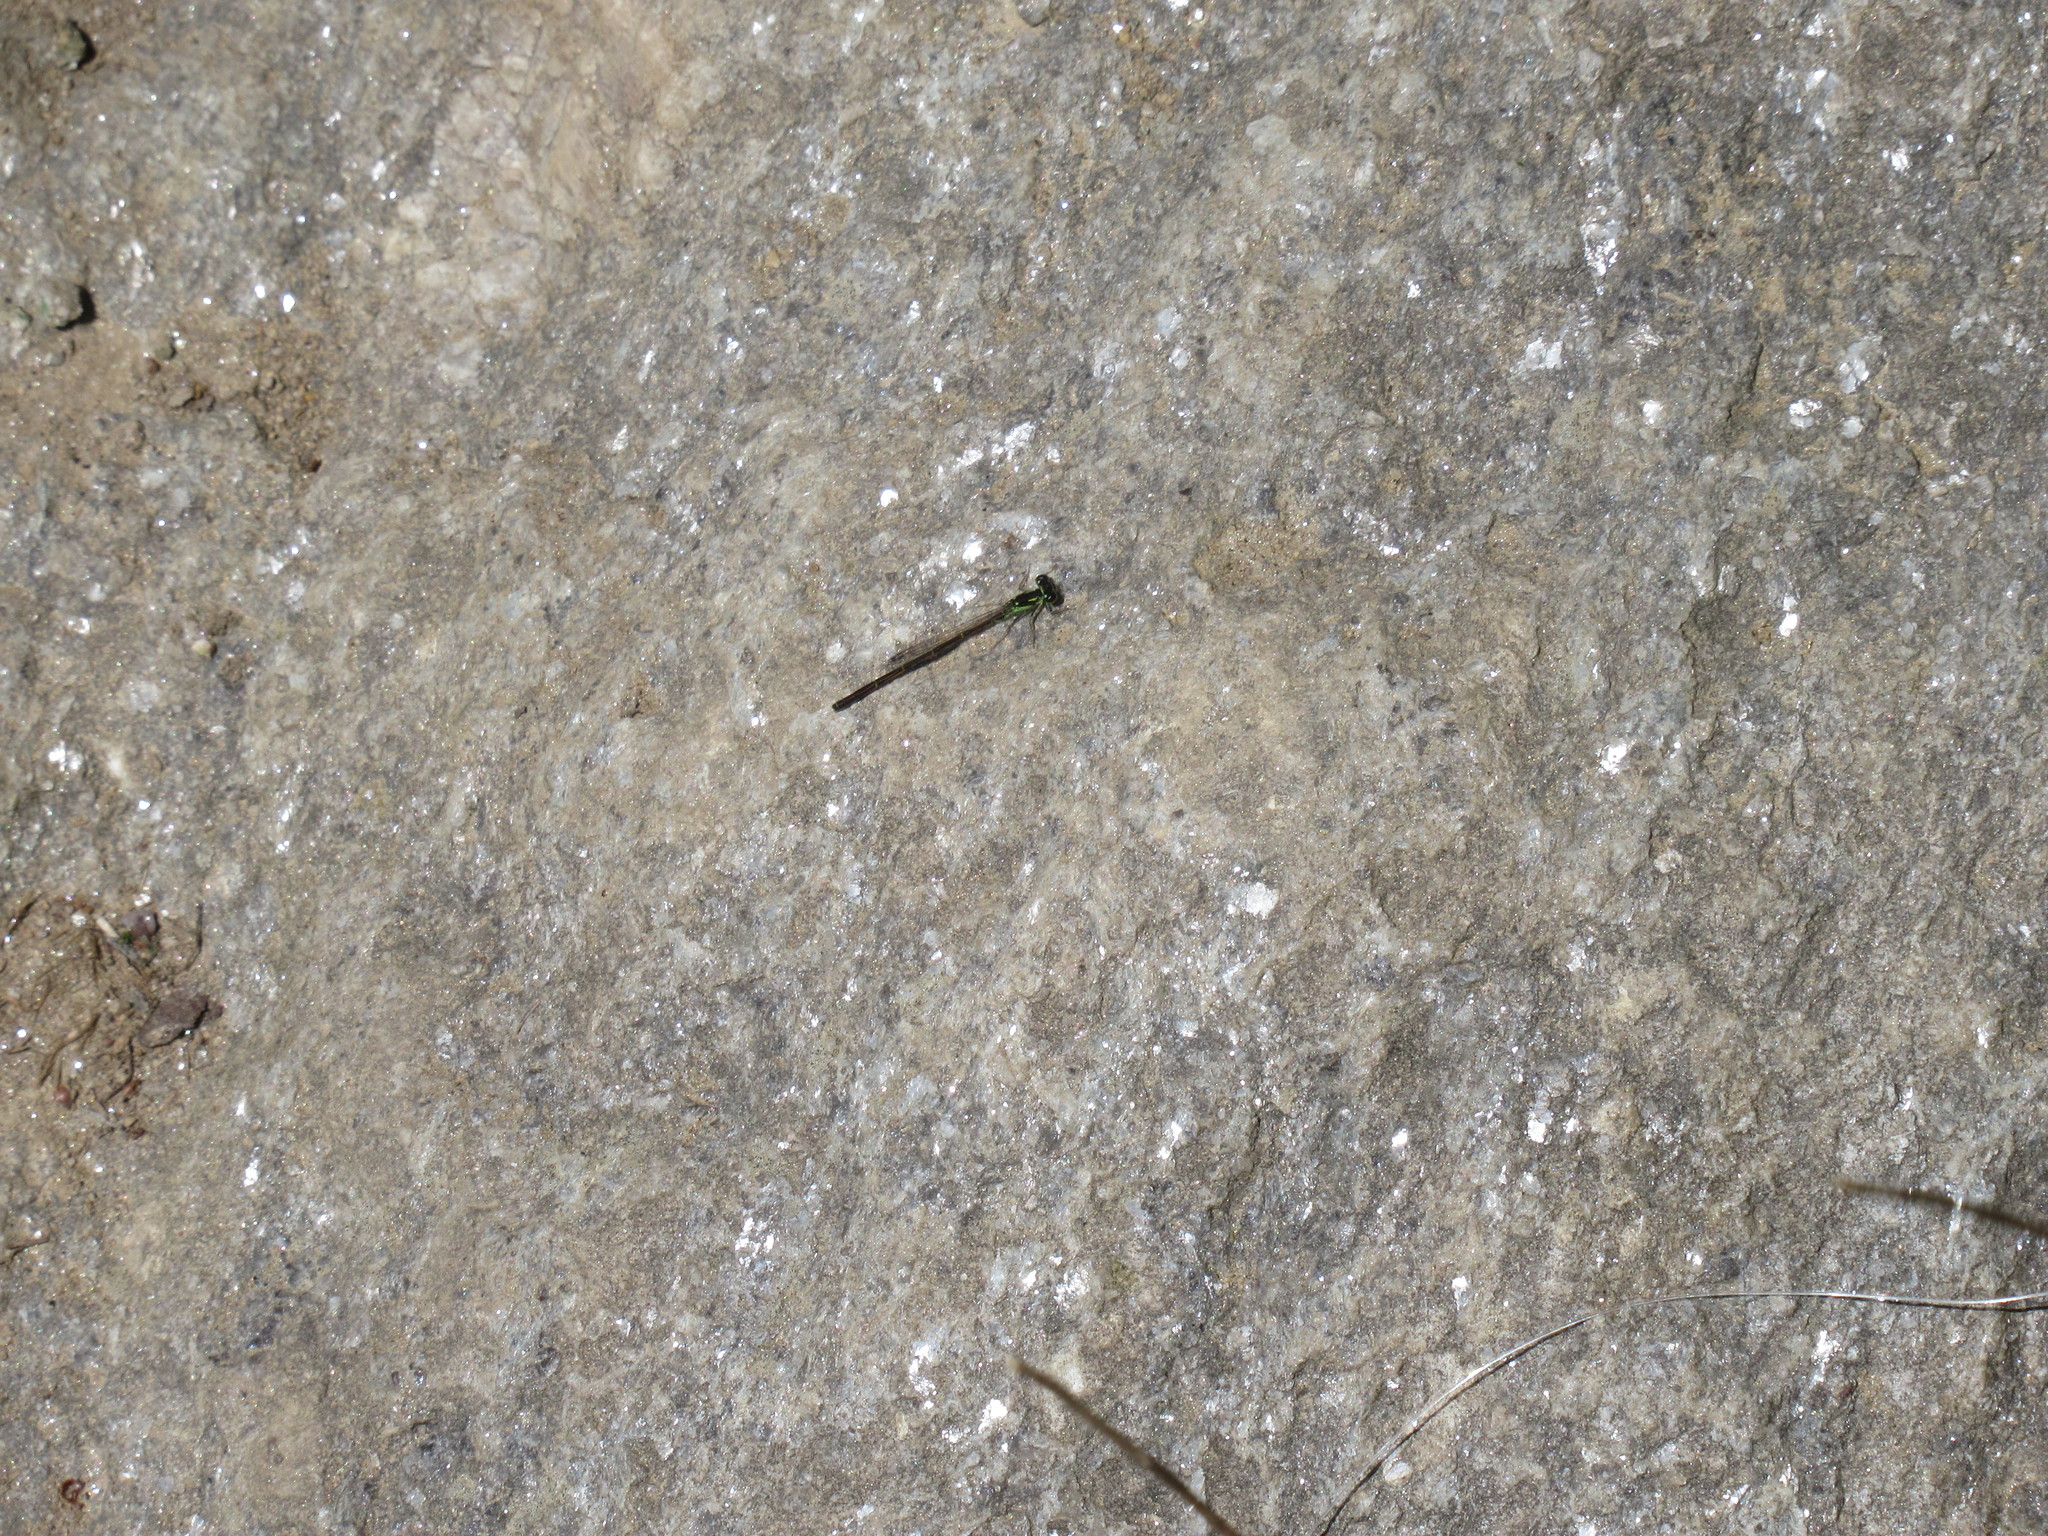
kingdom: Animalia
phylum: Arthropoda
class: Insecta
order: Odonata
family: Coenagrionidae
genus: Ischnura
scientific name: Ischnura posita
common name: Fragile forktail
